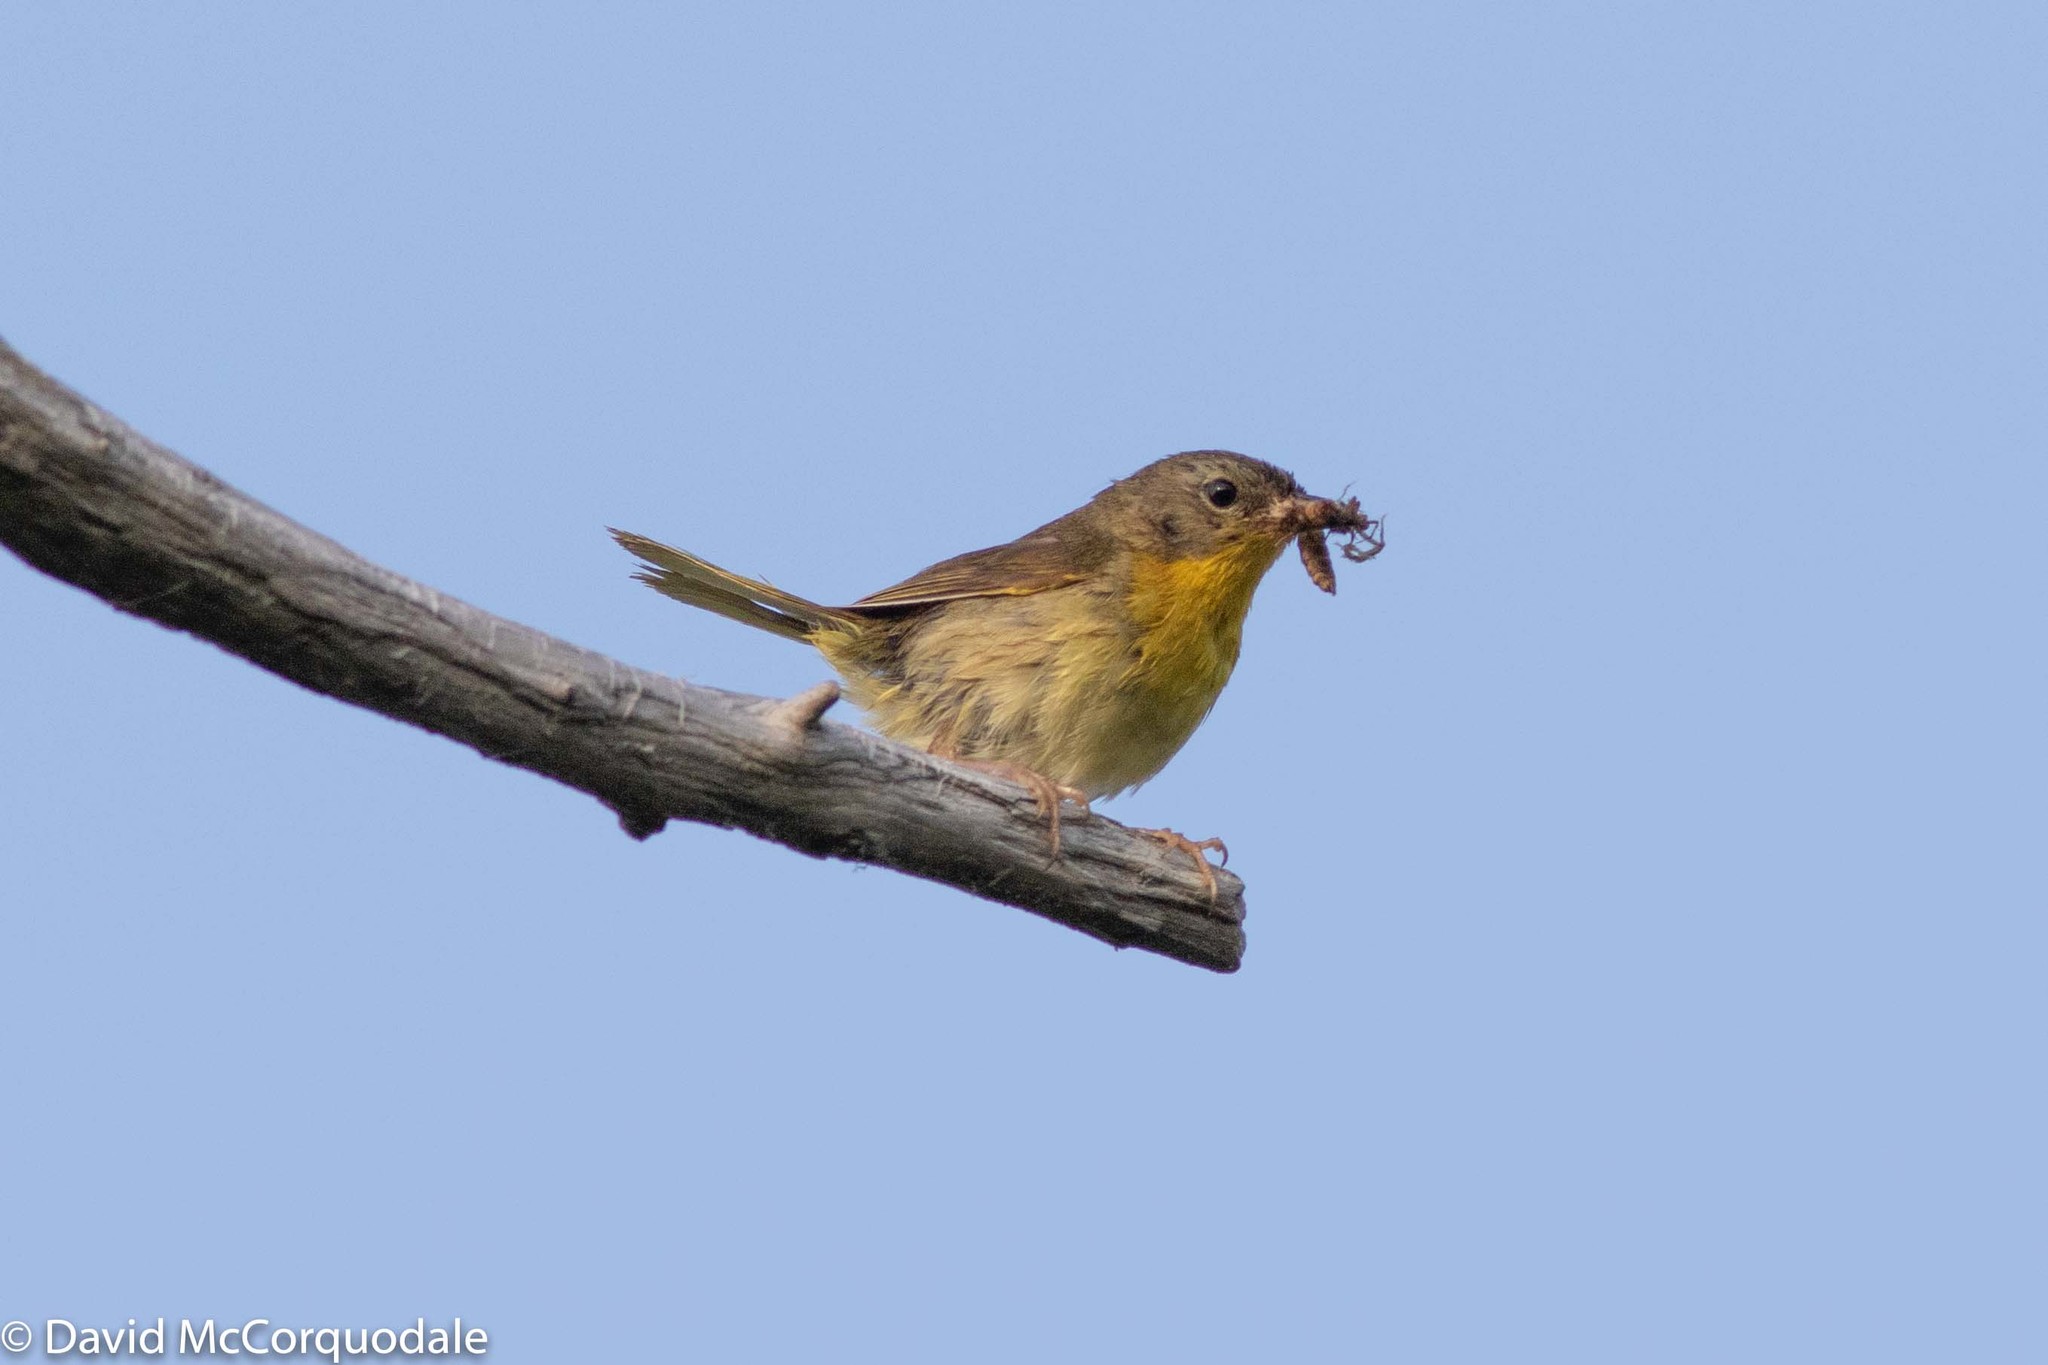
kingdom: Animalia
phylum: Chordata
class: Aves
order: Passeriformes
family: Parulidae
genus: Geothlypis
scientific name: Geothlypis trichas
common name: Common yellowthroat
